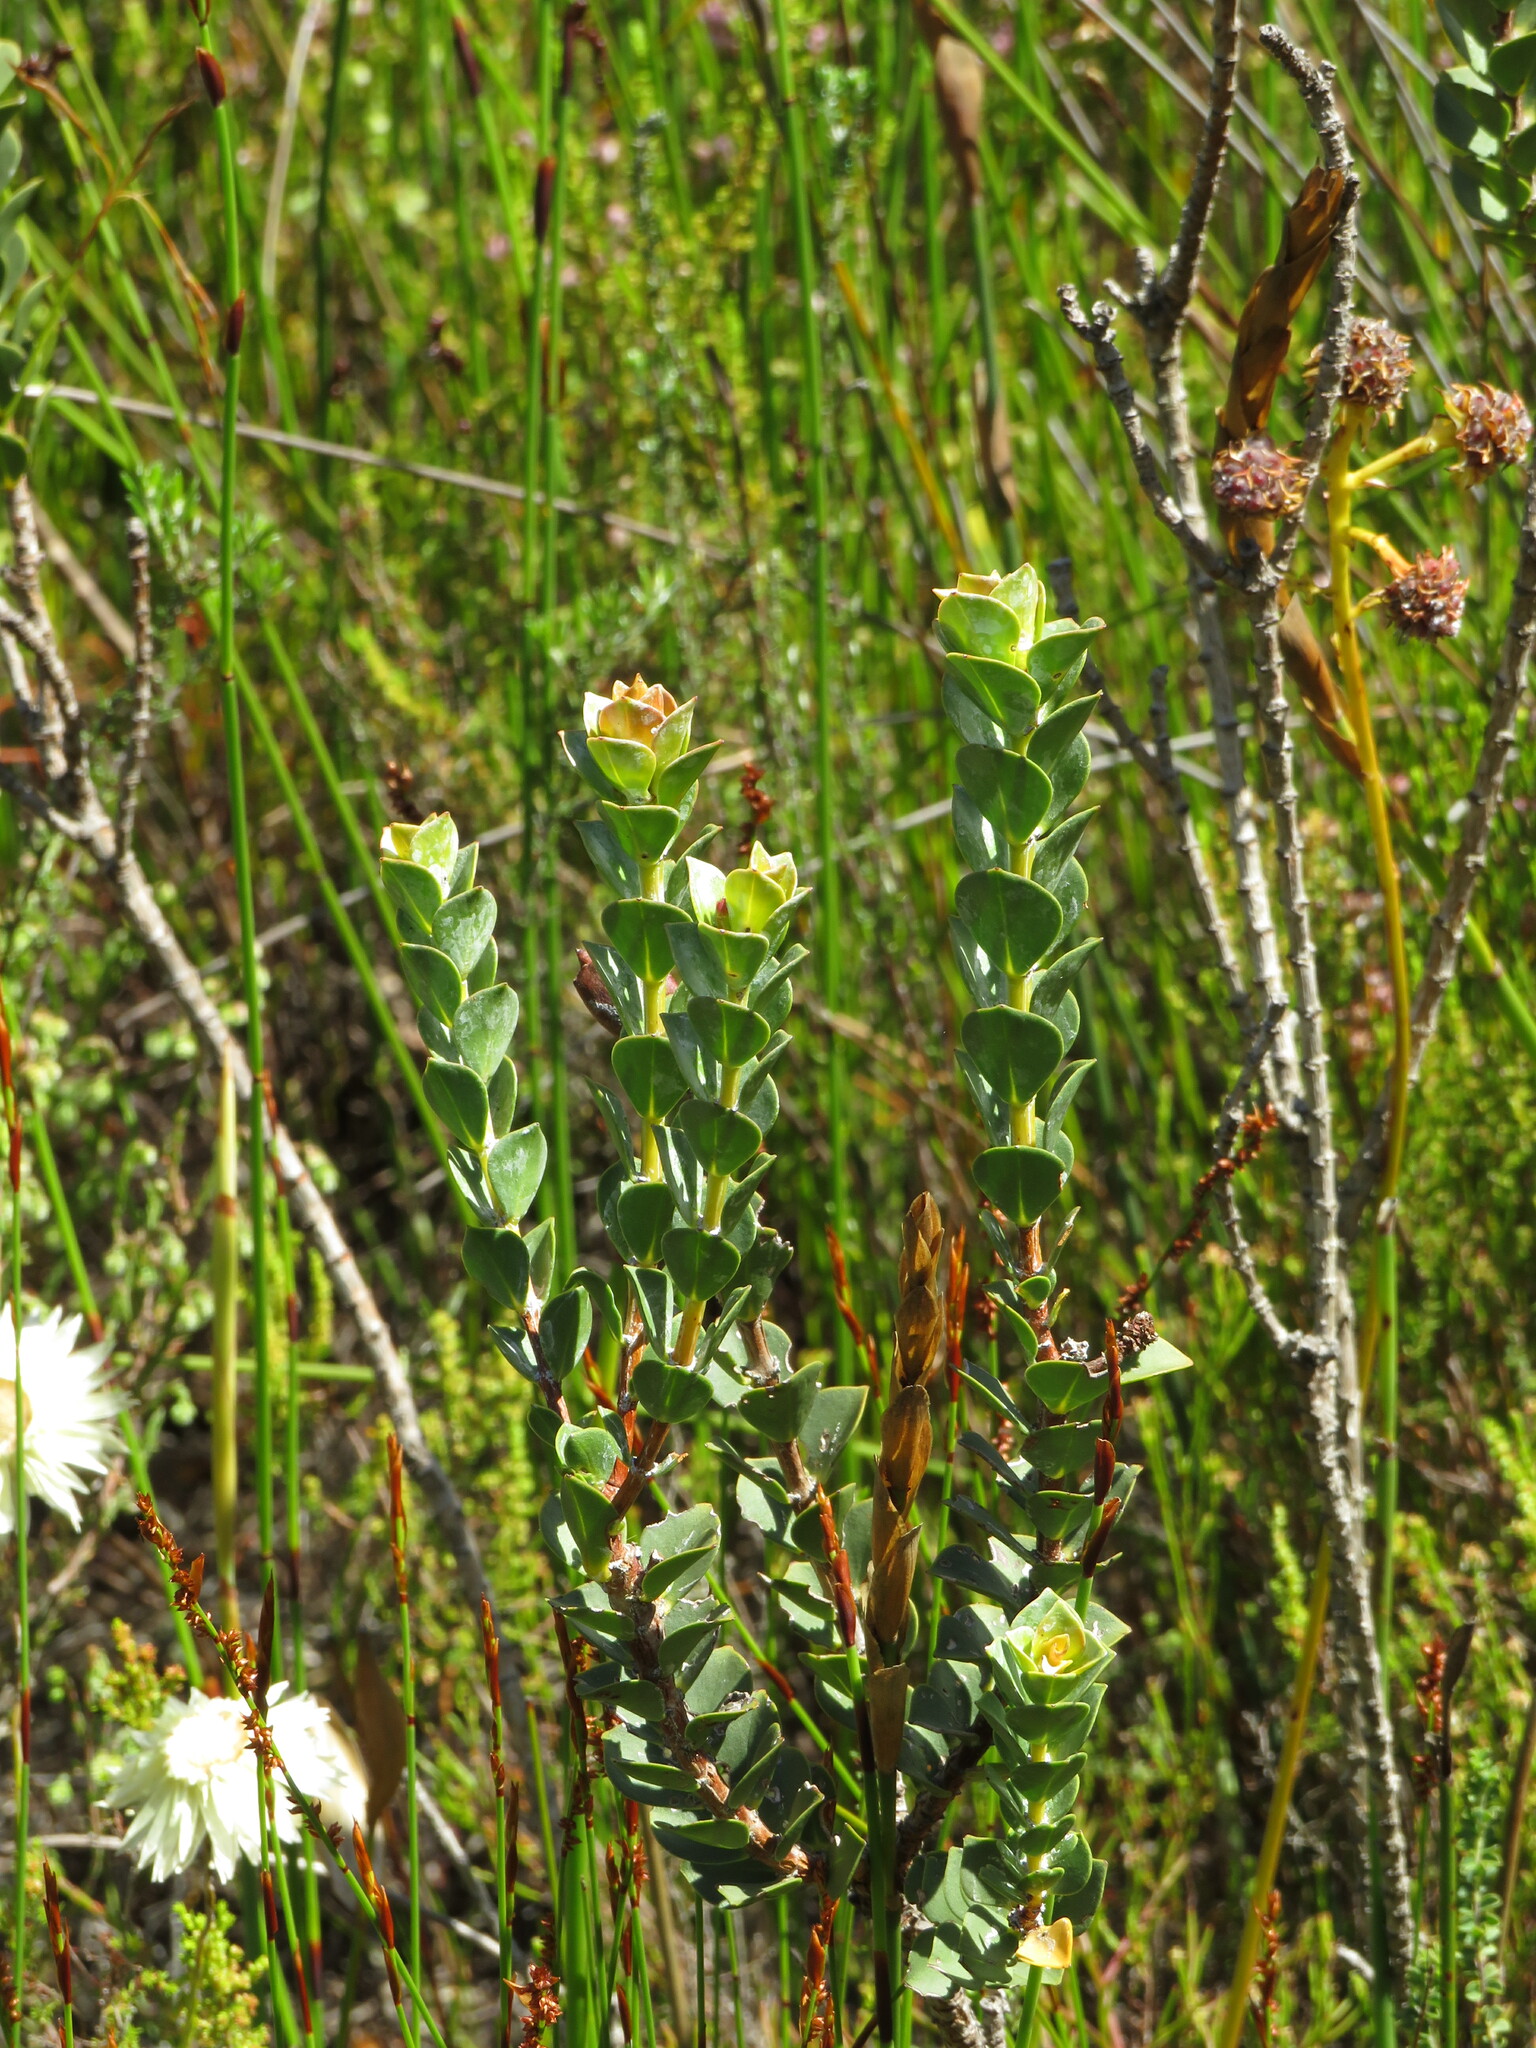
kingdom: Plantae
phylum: Tracheophyta
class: Magnoliopsida
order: Myrtales
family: Penaeaceae
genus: Saltera
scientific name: Saltera sarcocolla
